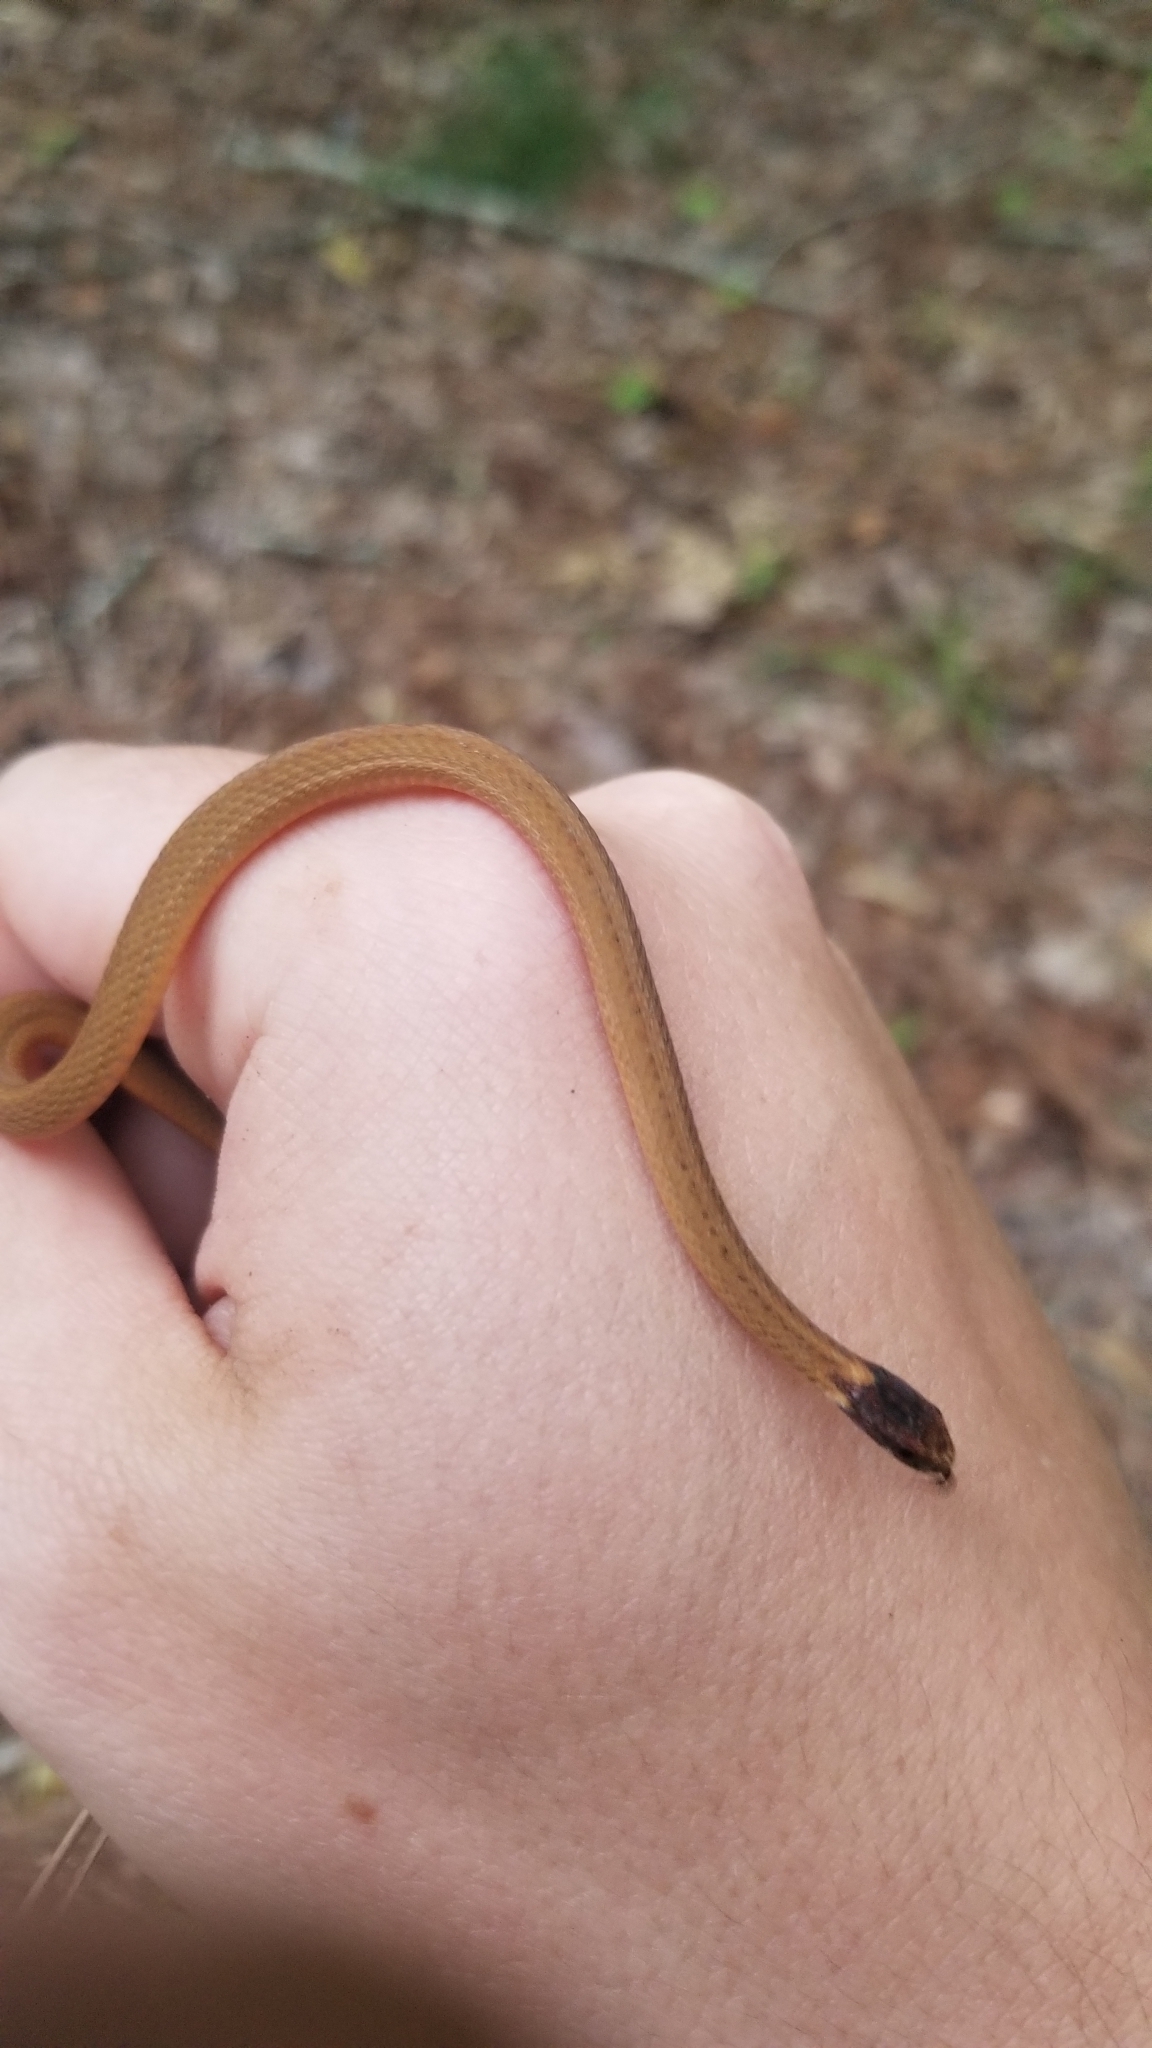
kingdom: Animalia
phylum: Chordata
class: Squamata
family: Colubridae
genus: Storeria
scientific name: Storeria occipitomaculata
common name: Redbelly snake
